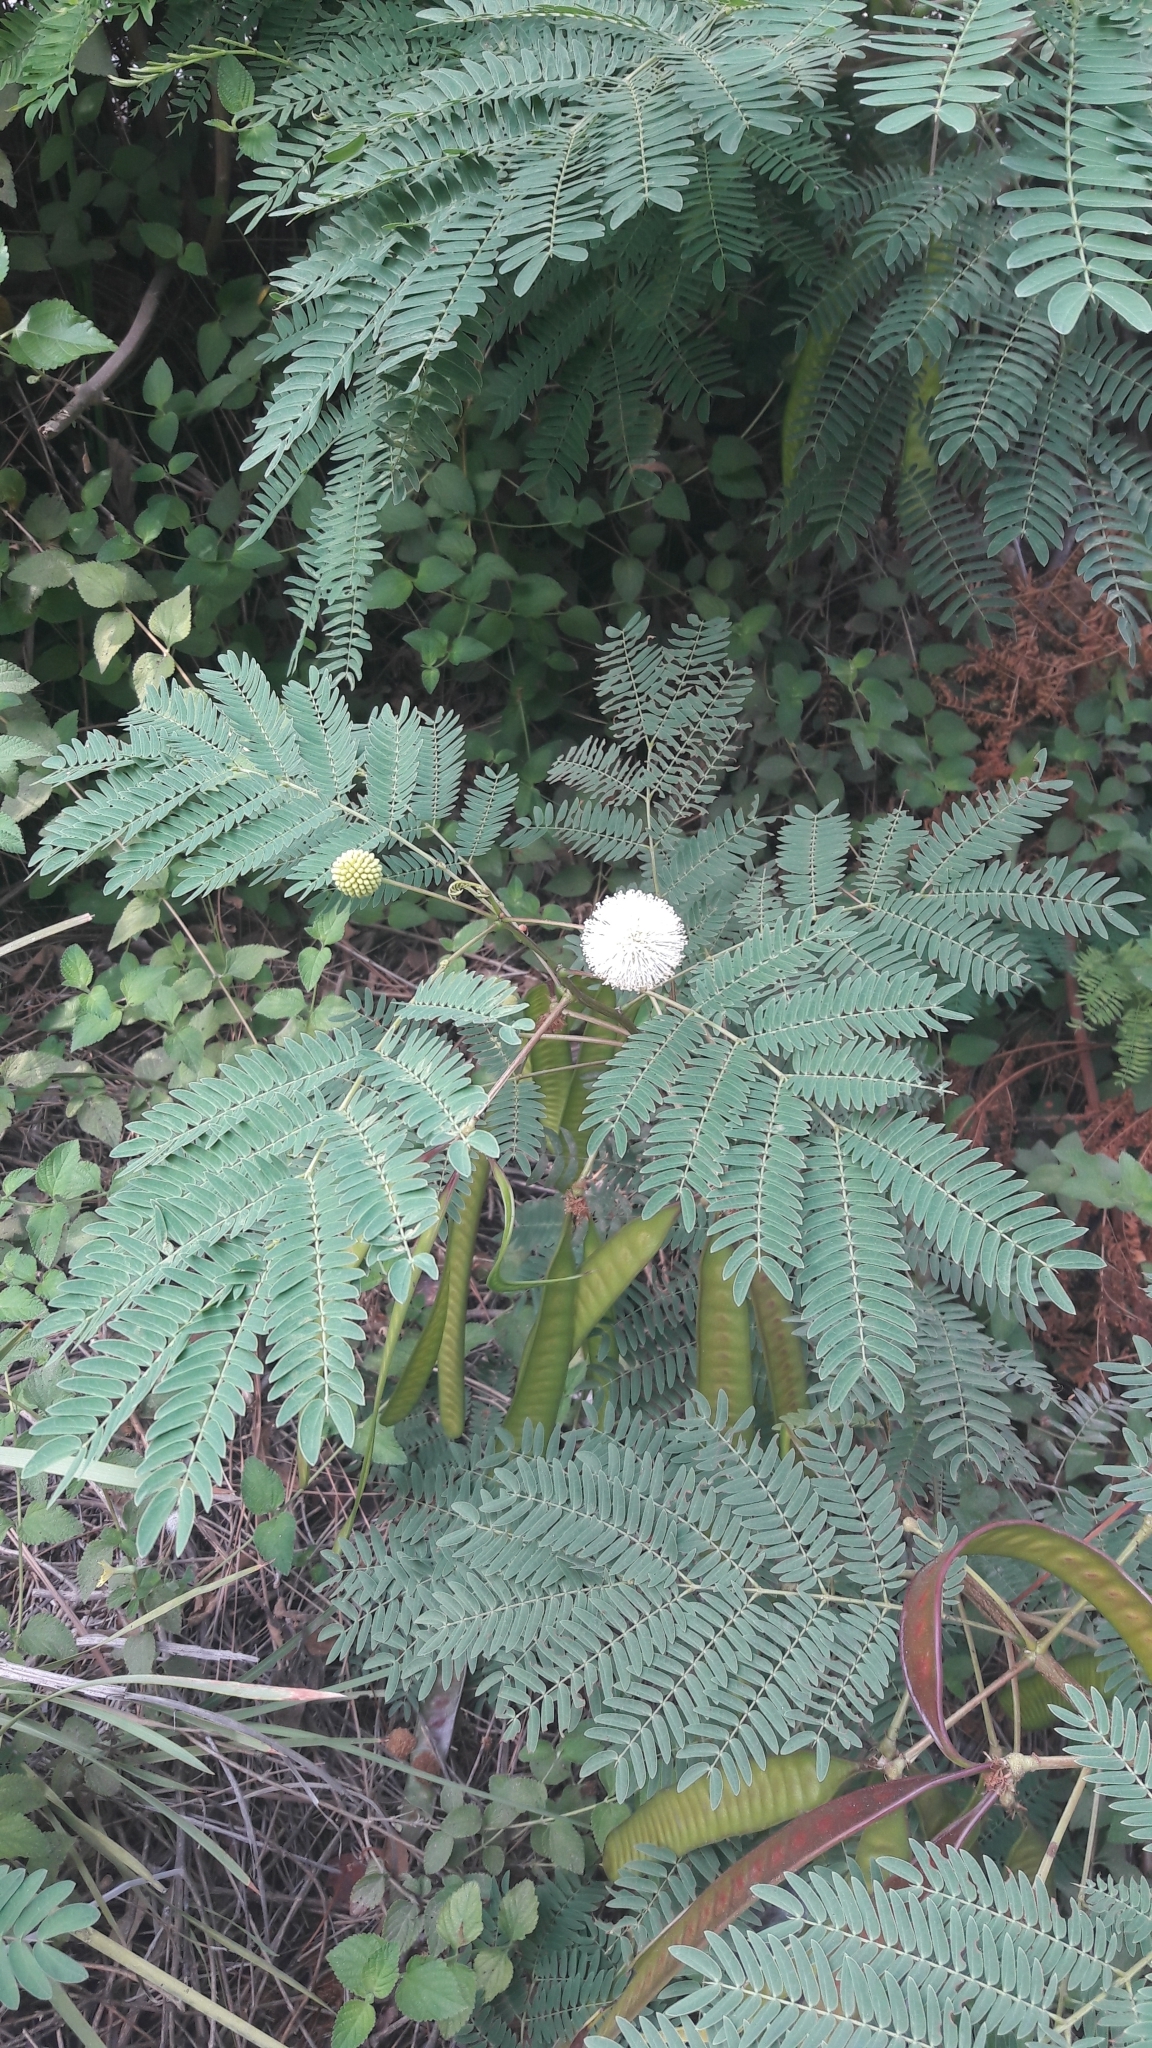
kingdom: Plantae
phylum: Tracheophyta
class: Magnoliopsida
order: Fabales
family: Fabaceae
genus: Leucaena
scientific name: Leucaena leucocephala
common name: White leadtree
